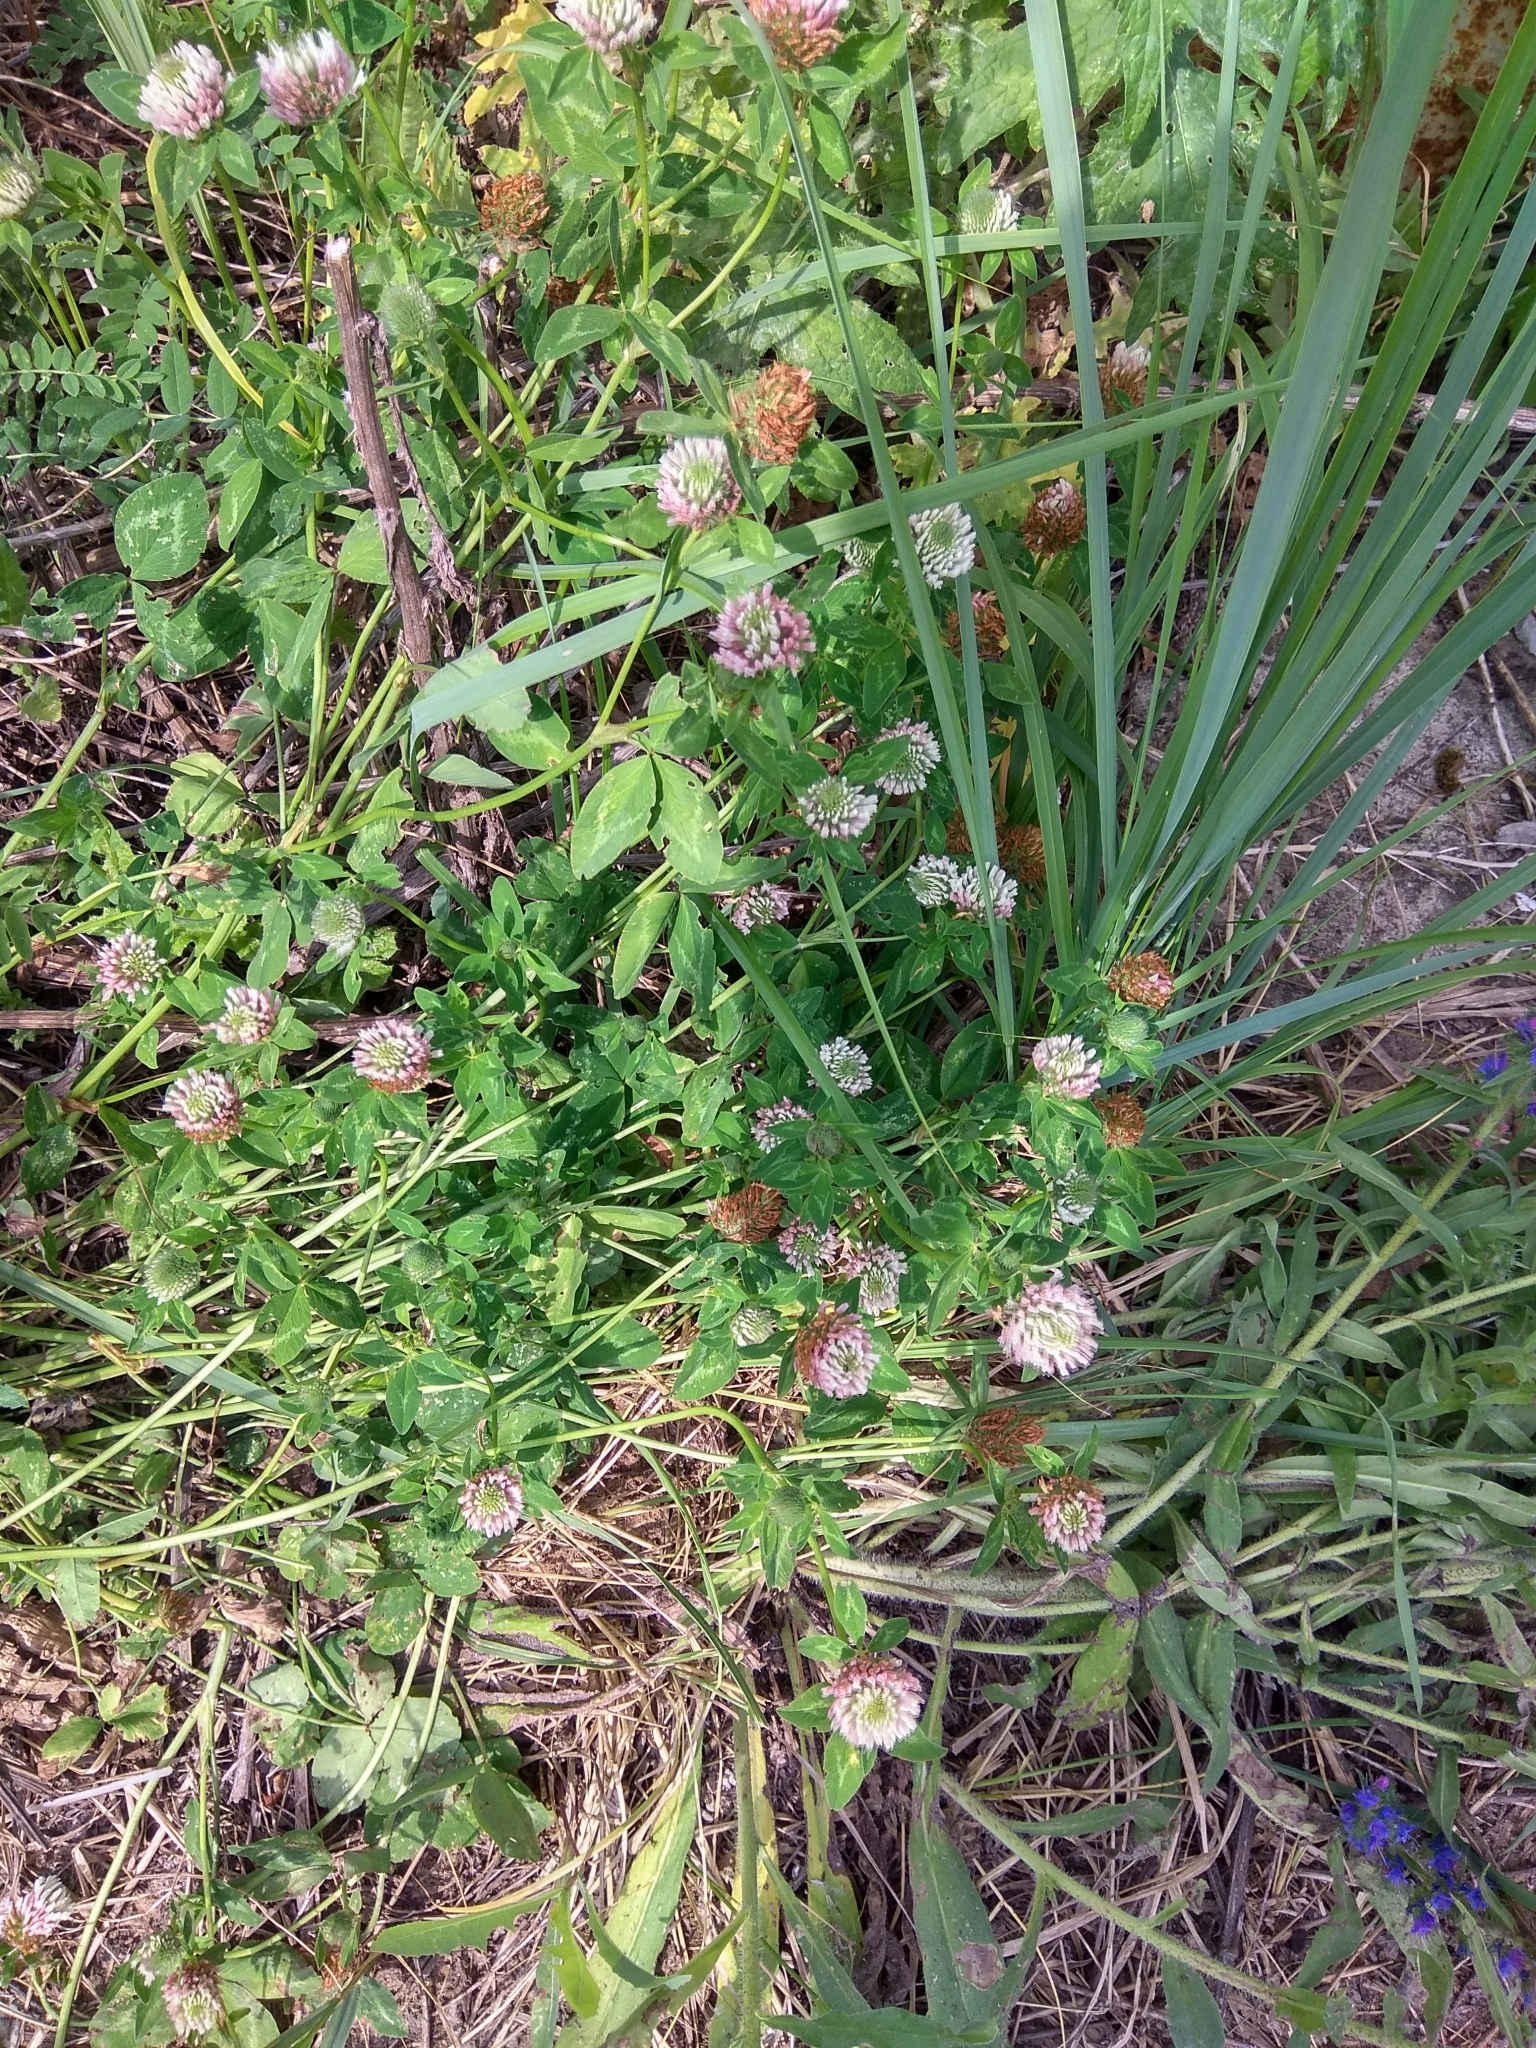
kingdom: Plantae
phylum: Tracheophyta
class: Magnoliopsida
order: Fabales
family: Fabaceae
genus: Trifolium
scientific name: Trifolium hybridum
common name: Alsike clover
